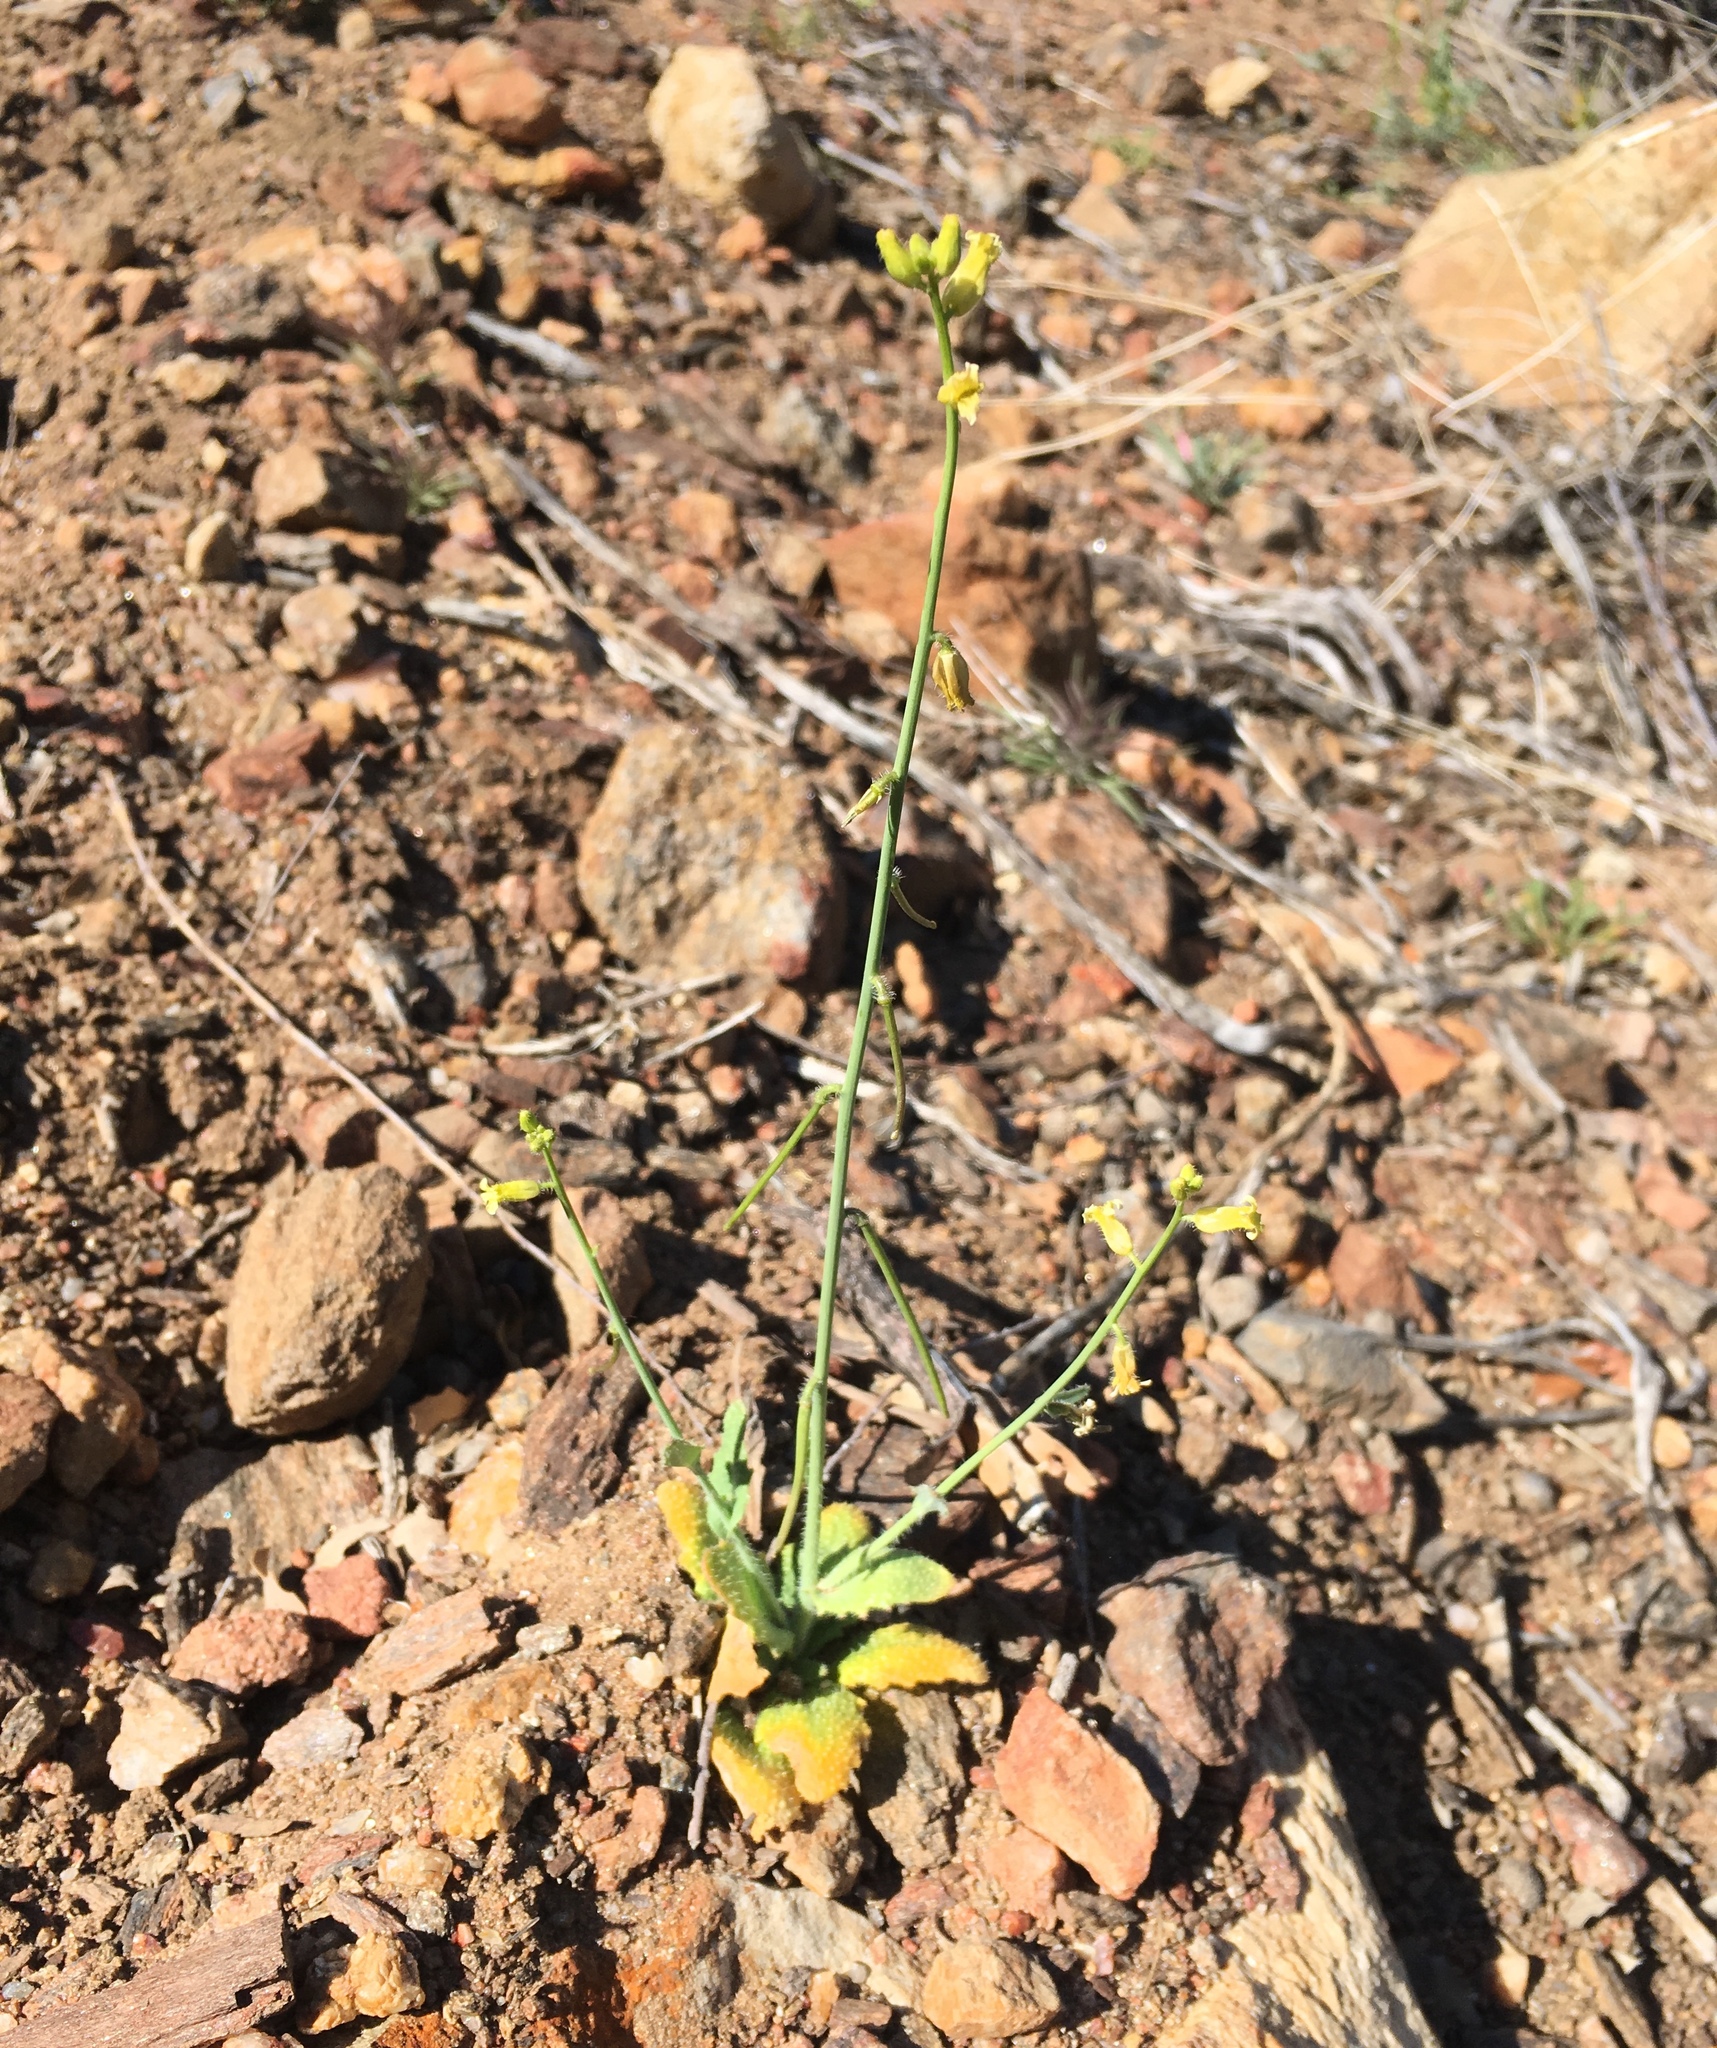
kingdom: Plantae
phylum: Tracheophyta
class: Magnoliopsida
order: Brassicales
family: Brassicaceae
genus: Streptanthus
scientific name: Streptanthus simulans
